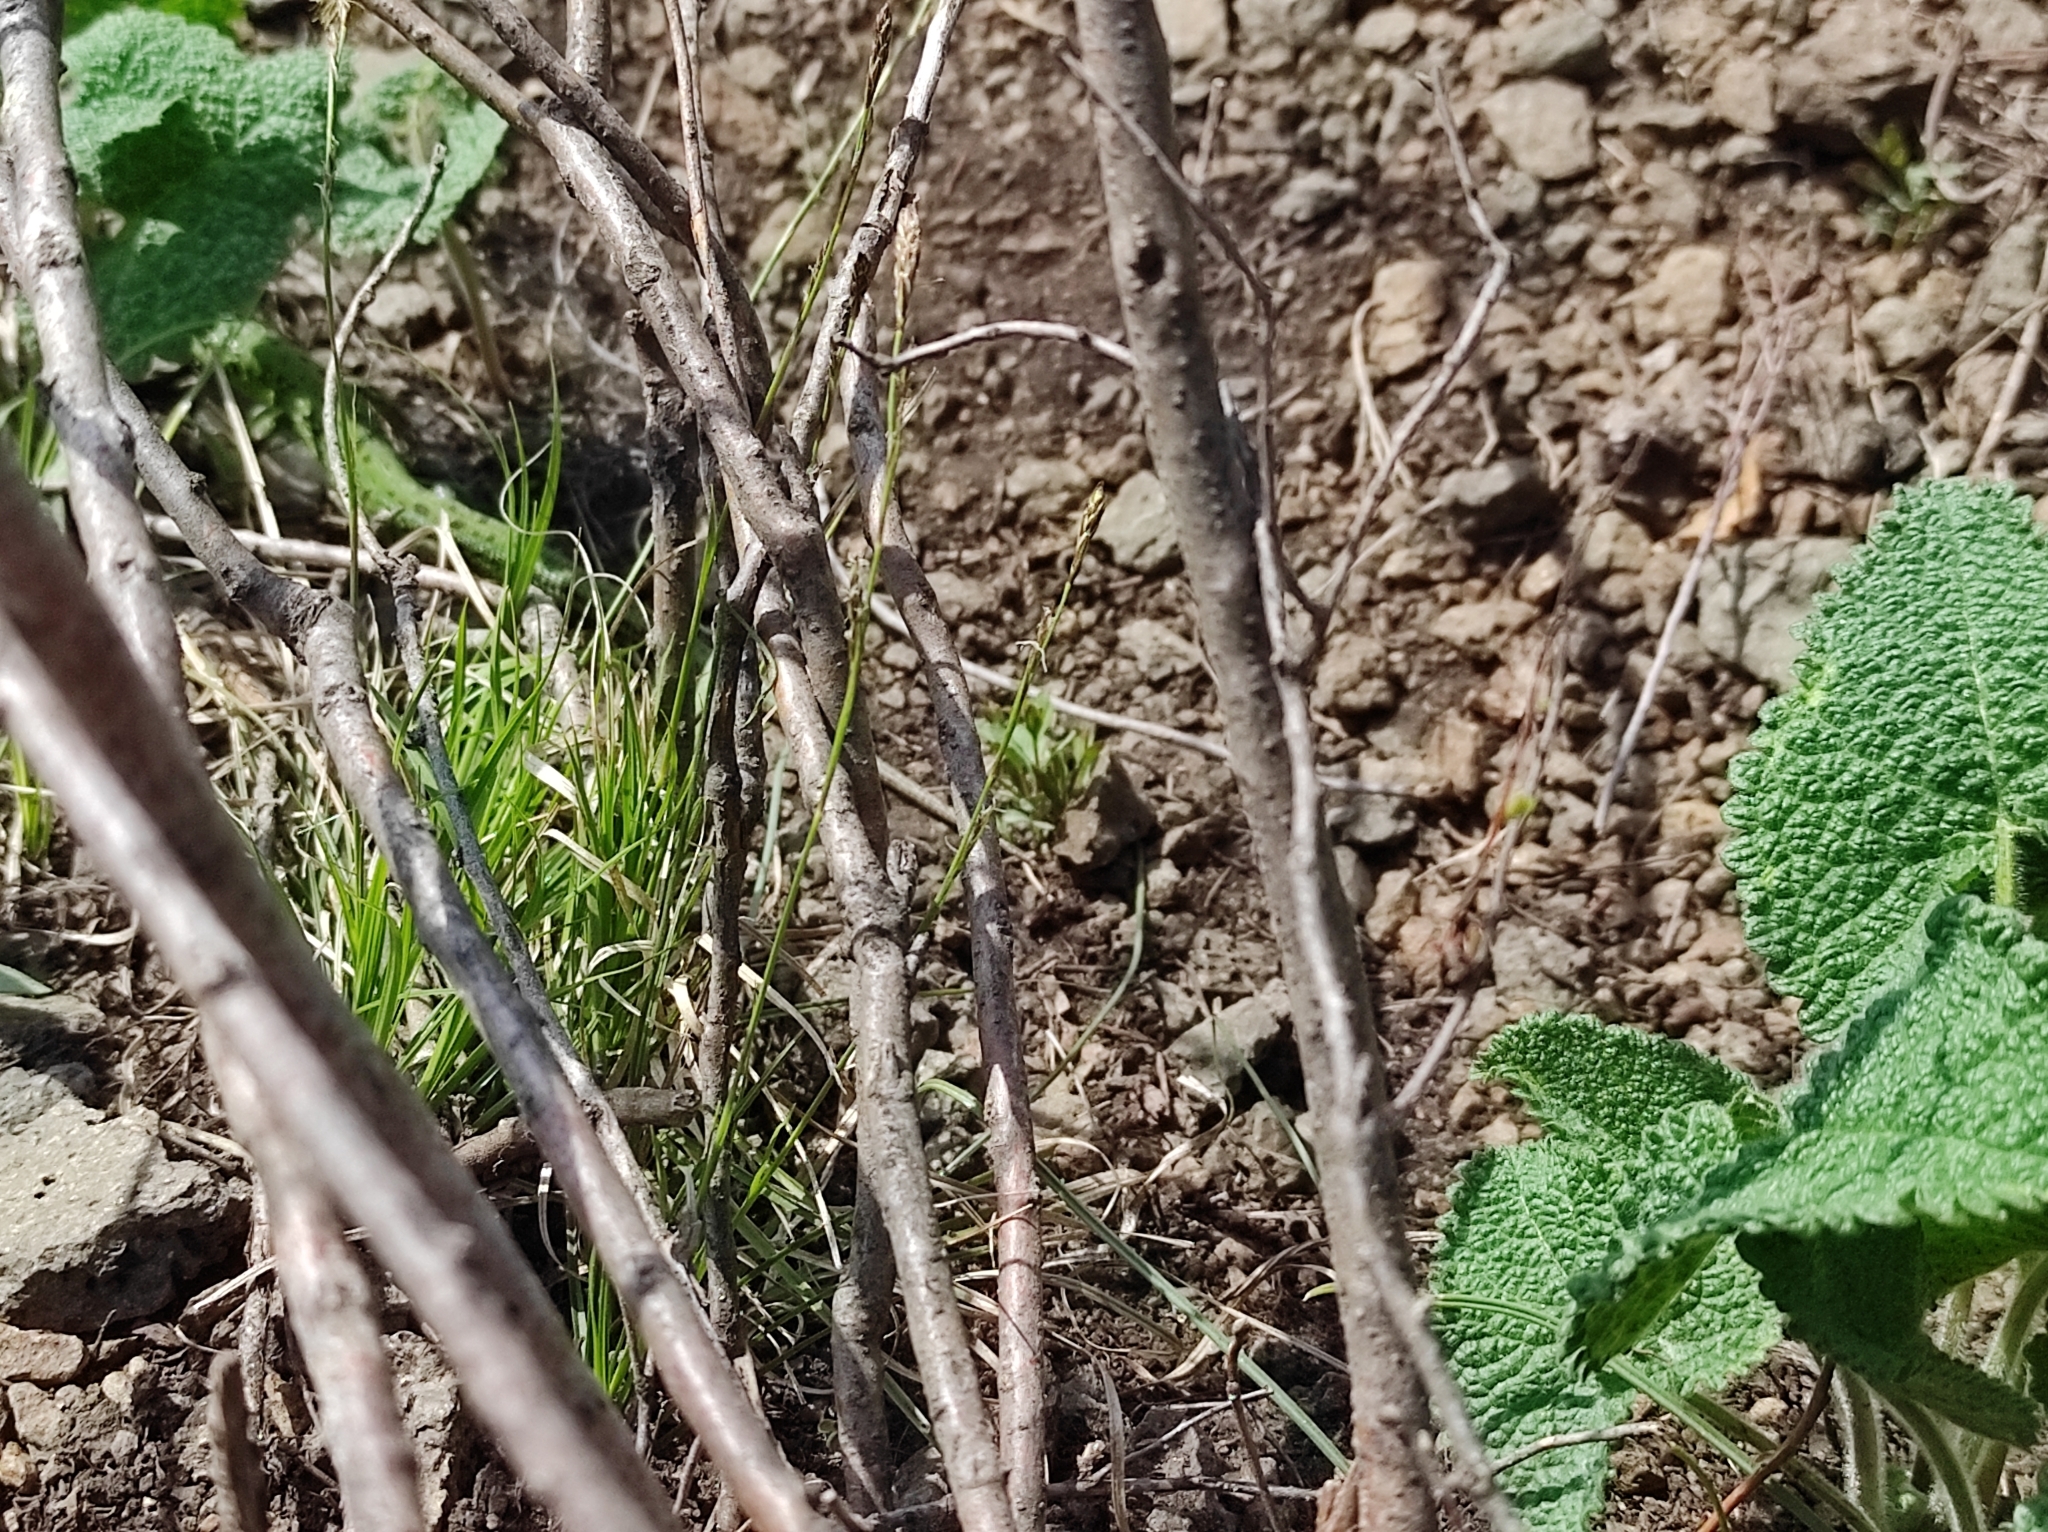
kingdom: Plantae
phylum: Tracheophyta
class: Magnoliopsida
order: Lamiales
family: Lamiaceae
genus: Phlomoides
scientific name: Phlomoides tuberosa
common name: Tuberous jerusalem sage
